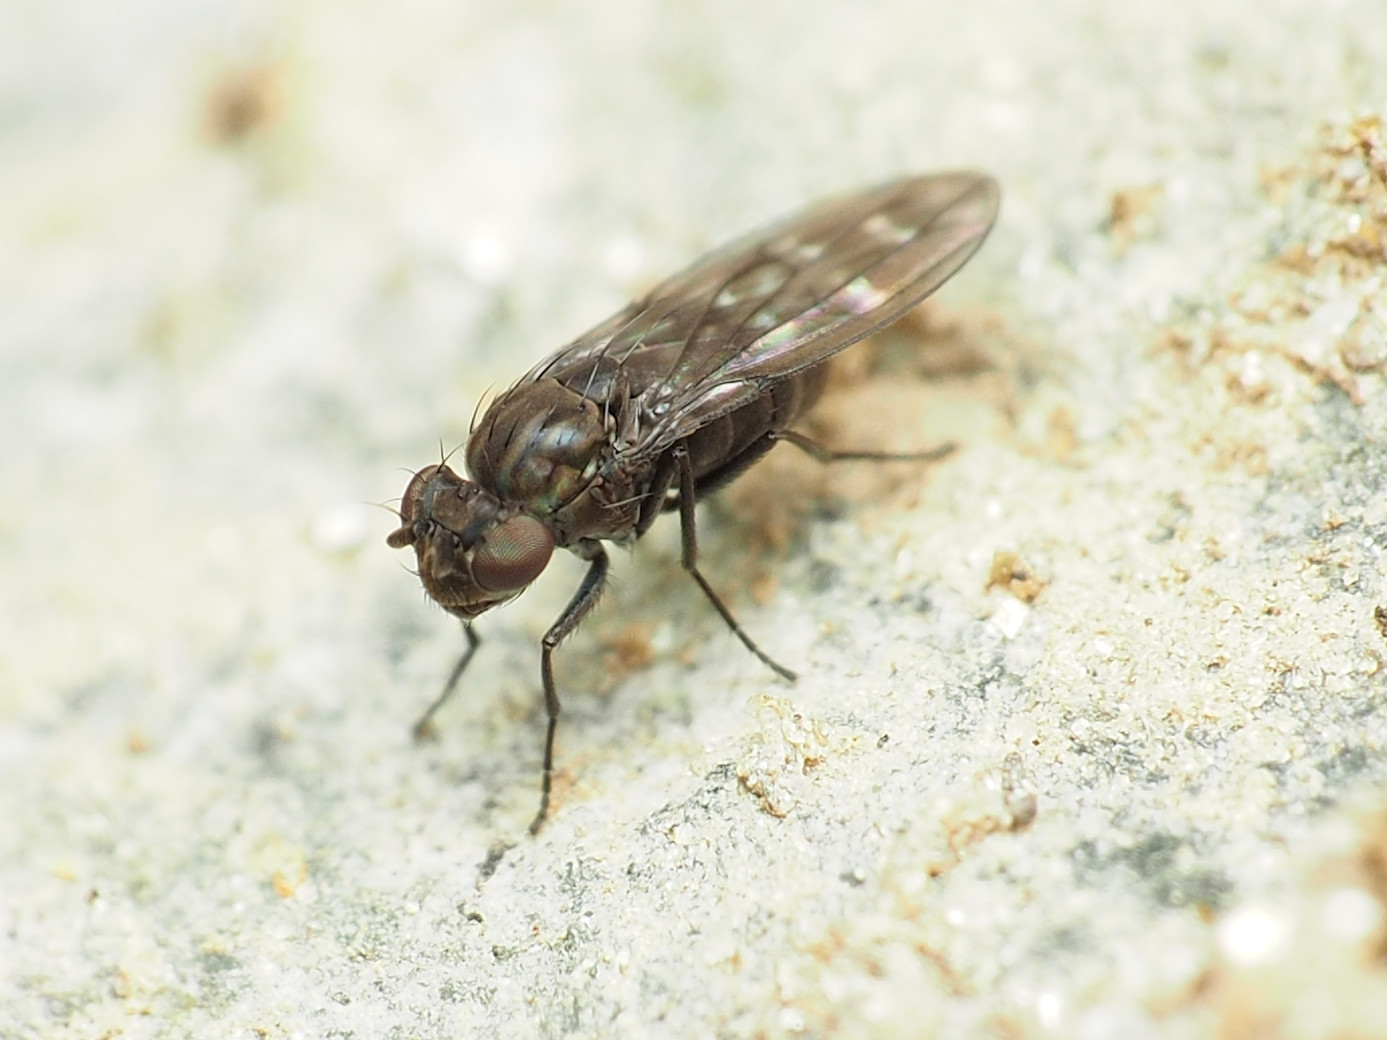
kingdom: Animalia
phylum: Arthropoda
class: Insecta
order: Diptera
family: Ephydridae
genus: Scatella
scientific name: Scatella stagnalis
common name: Shore fly
